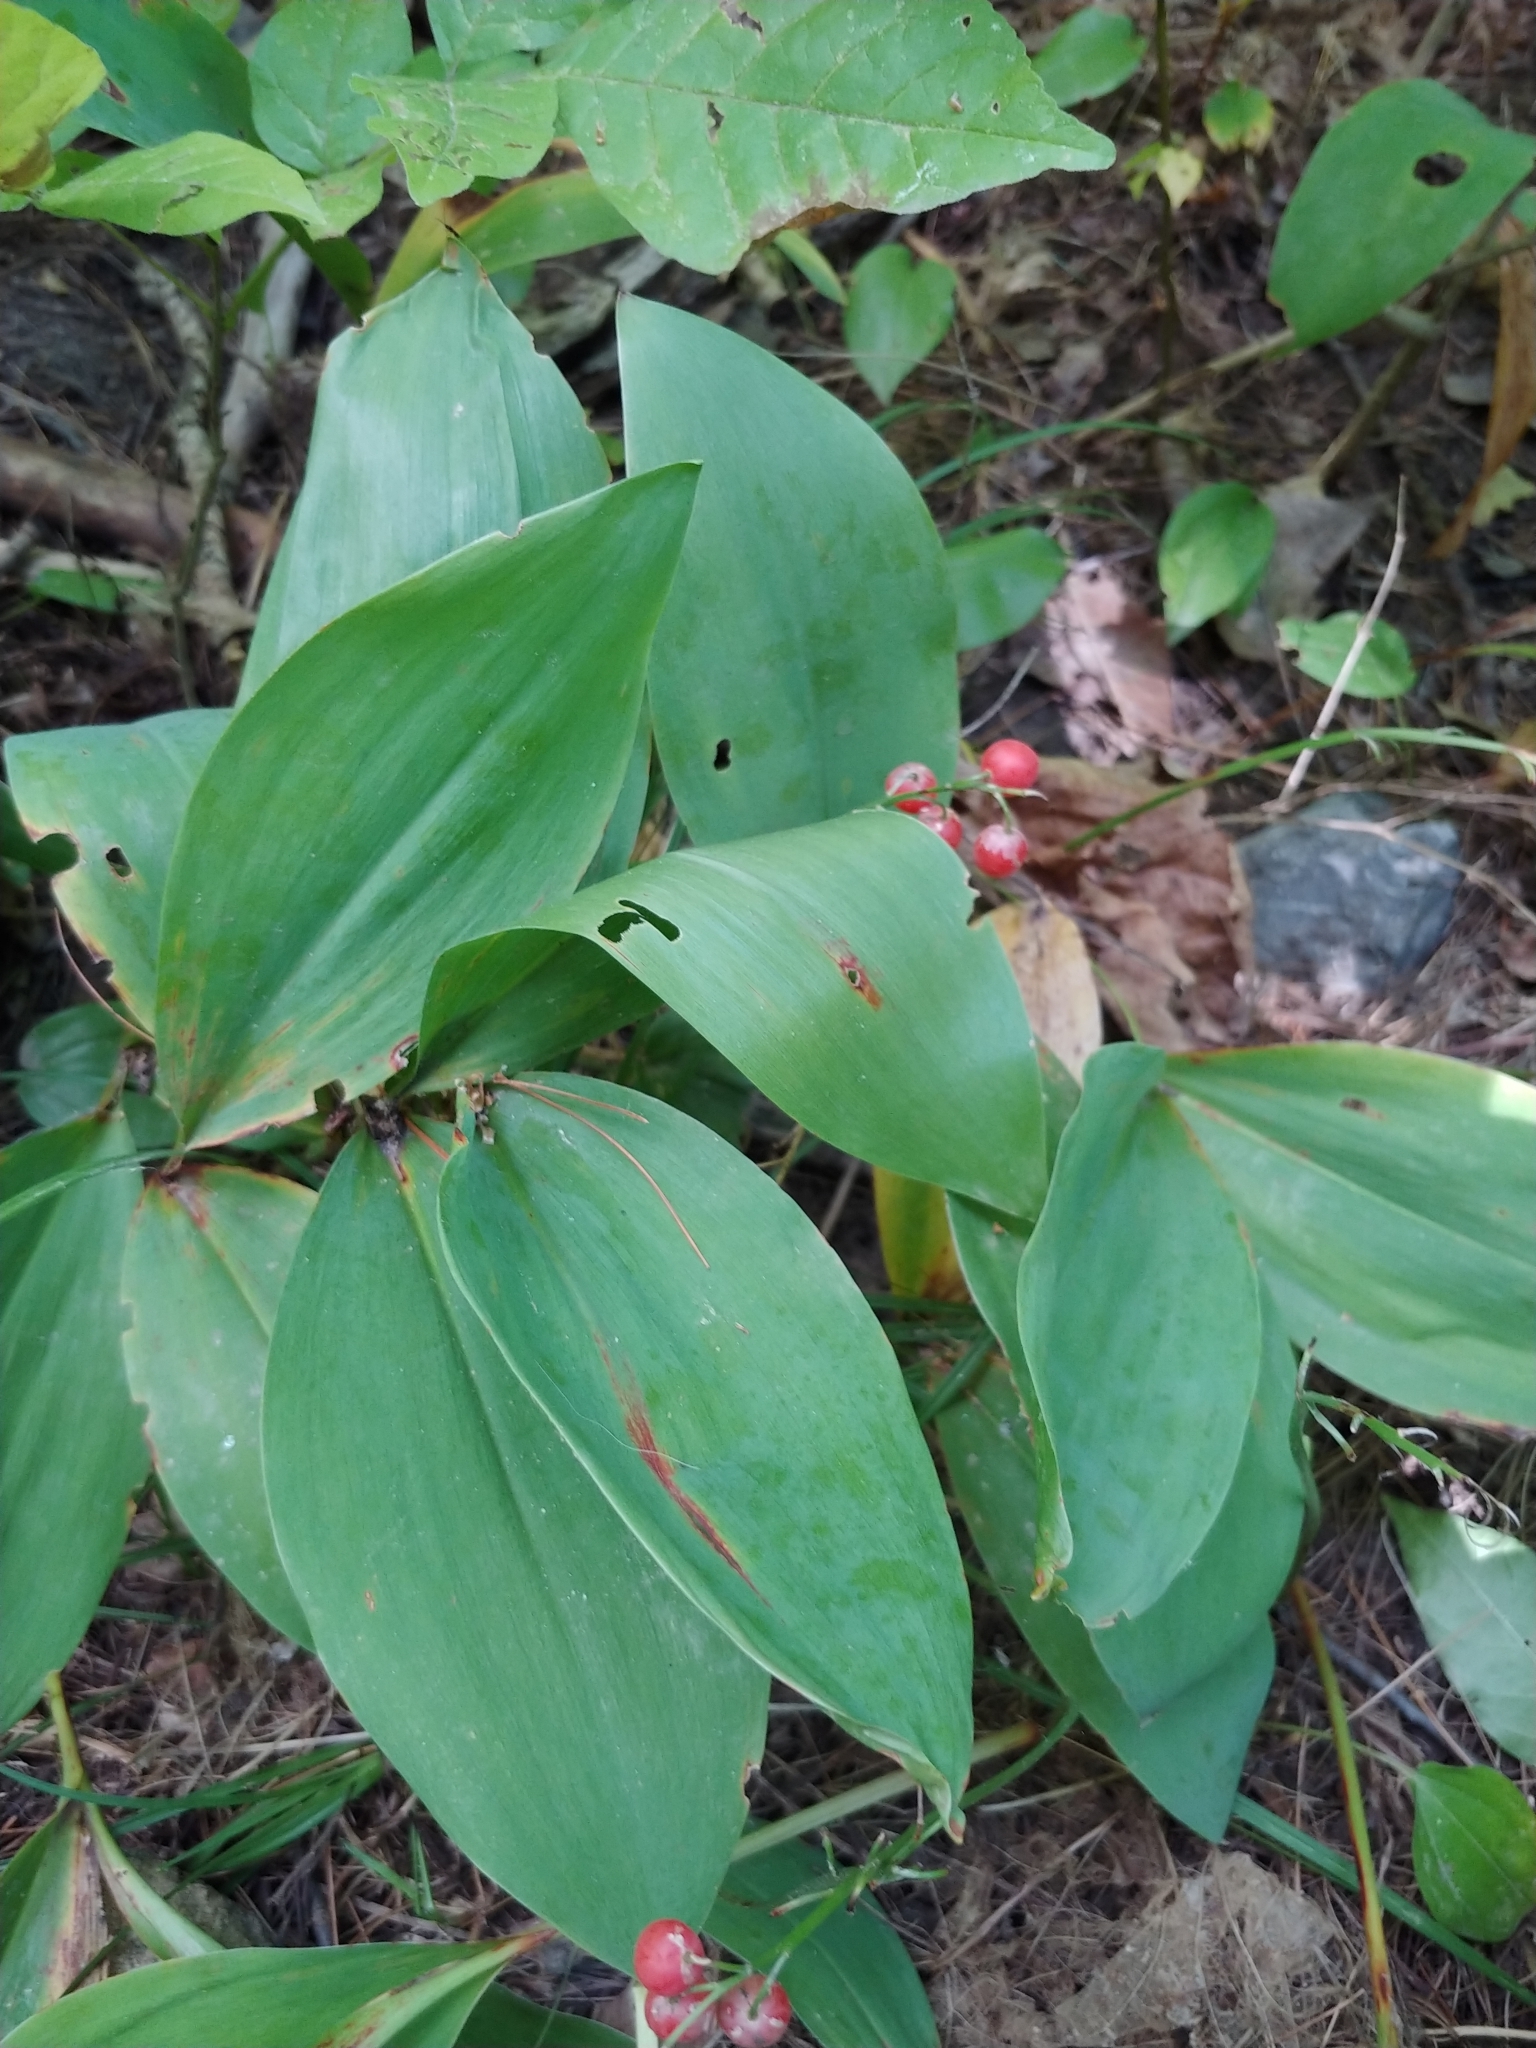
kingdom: Plantae
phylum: Tracheophyta
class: Liliopsida
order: Asparagales
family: Asparagaceae
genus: Convallaria
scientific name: Convallaria majalis
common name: Lily-of-the-valley
